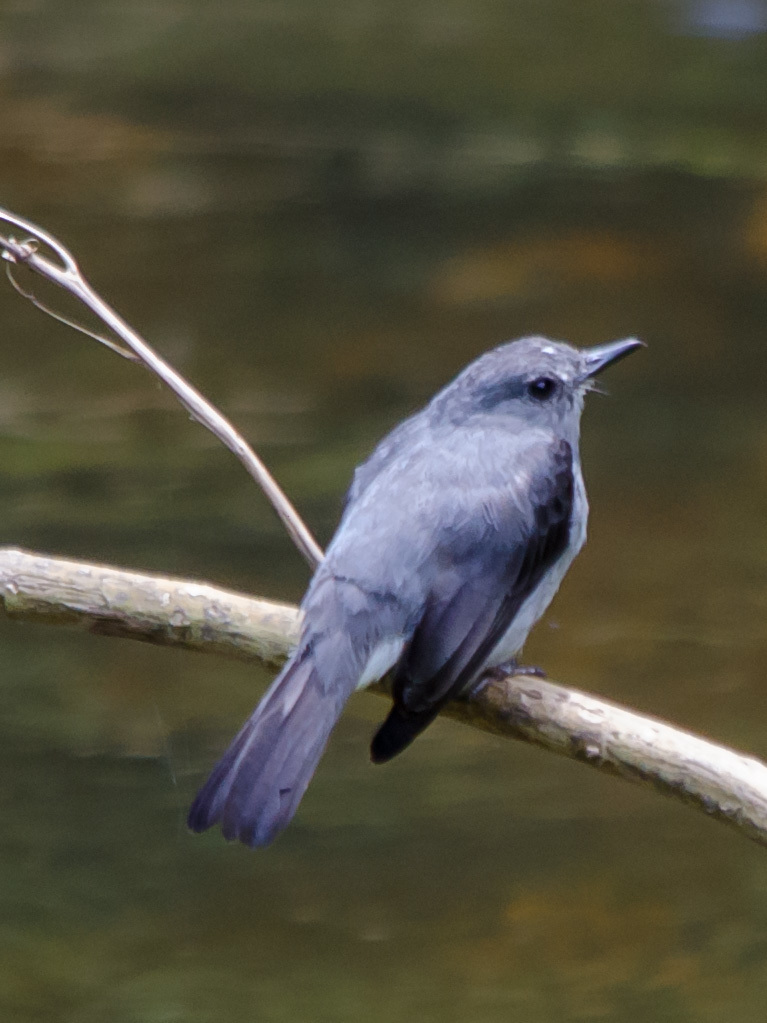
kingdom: Animalia
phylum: Chordata
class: Aves
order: Passeriformes
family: Muscicapidae
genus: Muscicapa
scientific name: Muscicapa cassini
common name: Cassin's flycatcher
